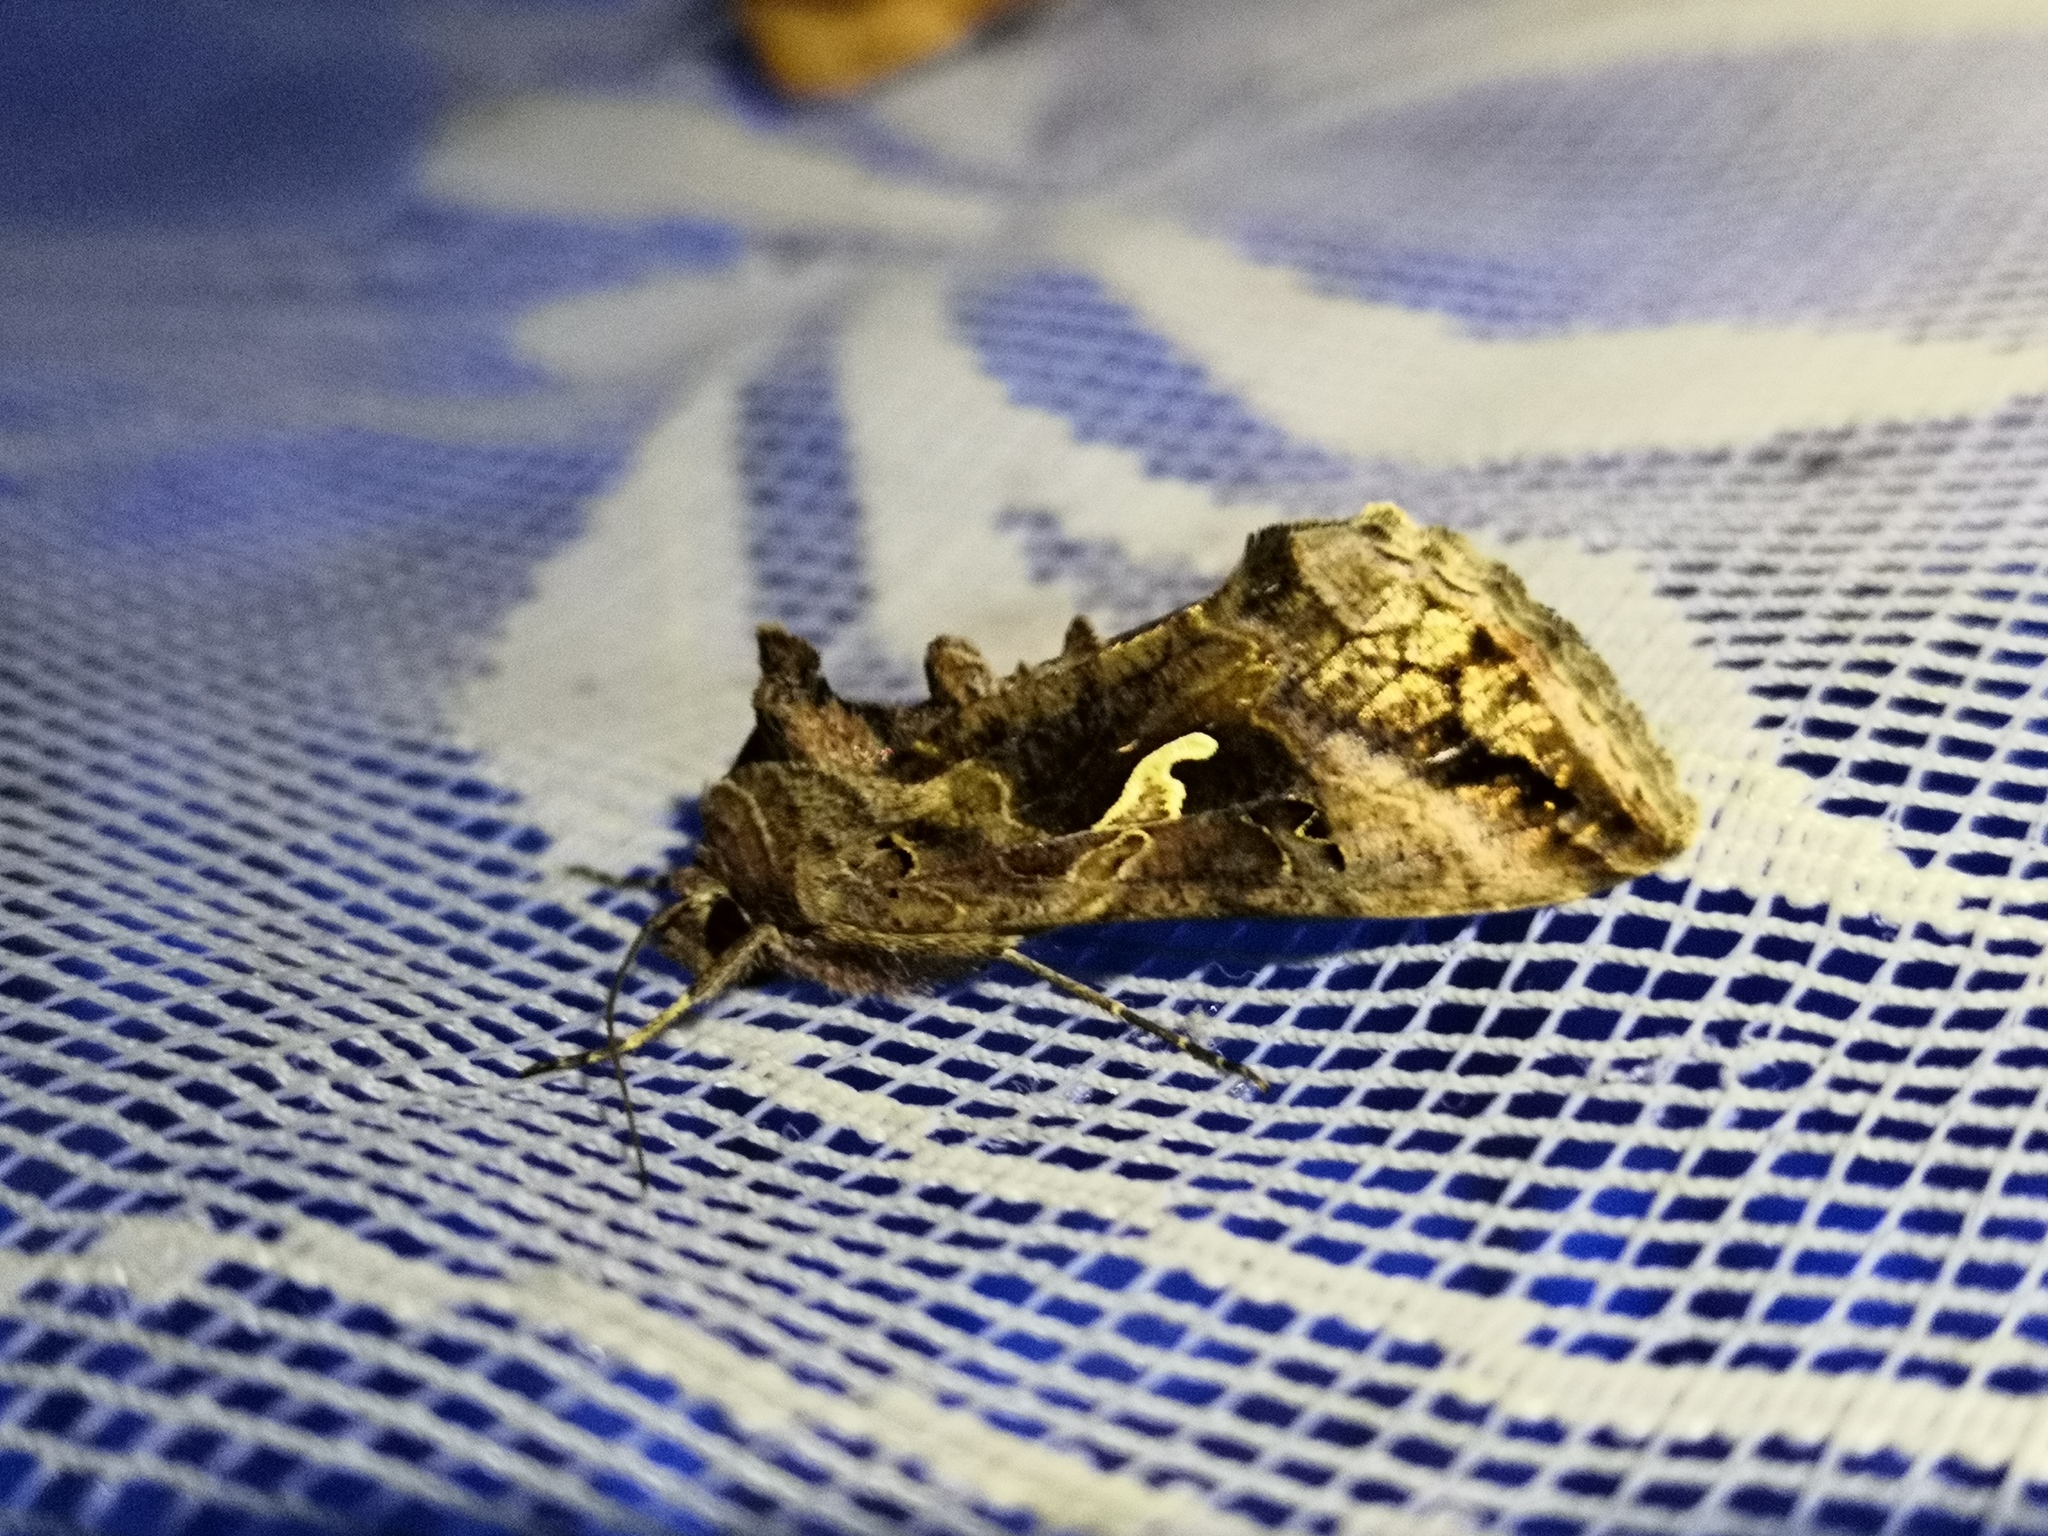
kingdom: Animalia
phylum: Arthropoda
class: Insecta
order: Lepidoptera
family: Noctuidae
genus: Autographa
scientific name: Autographa gamma
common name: Silver y
